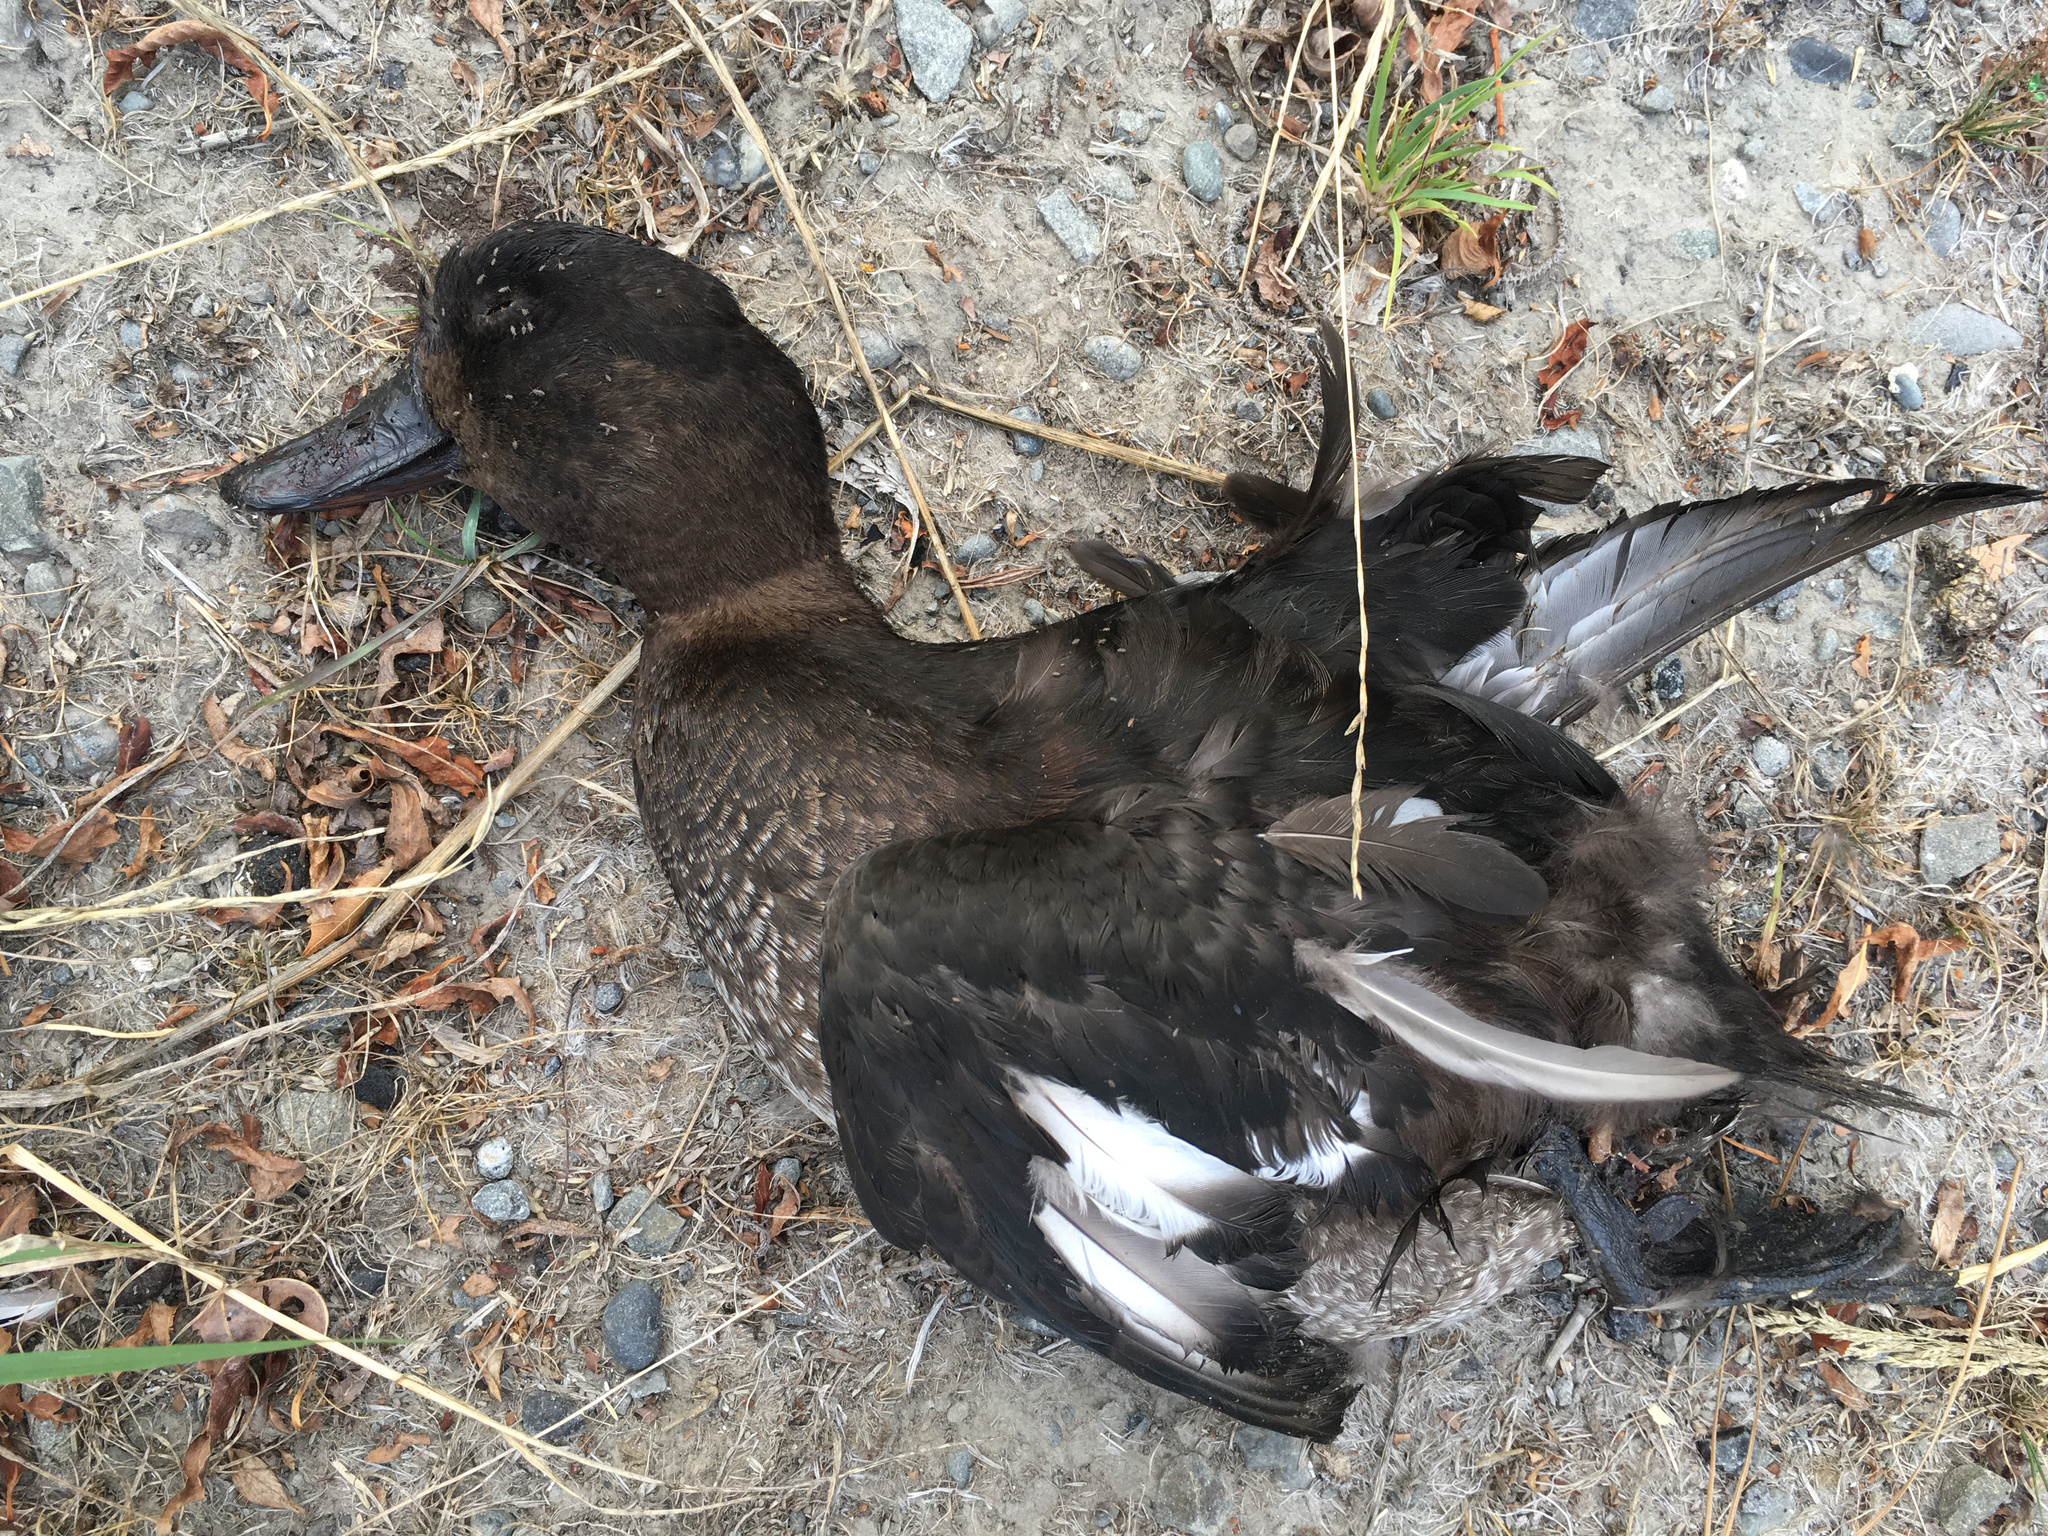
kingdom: Animalia
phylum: Chordata
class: Aves
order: Anseriformes
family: Anatidae
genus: Aythya
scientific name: Aythya novaeseelandiae
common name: New zealand scaup
